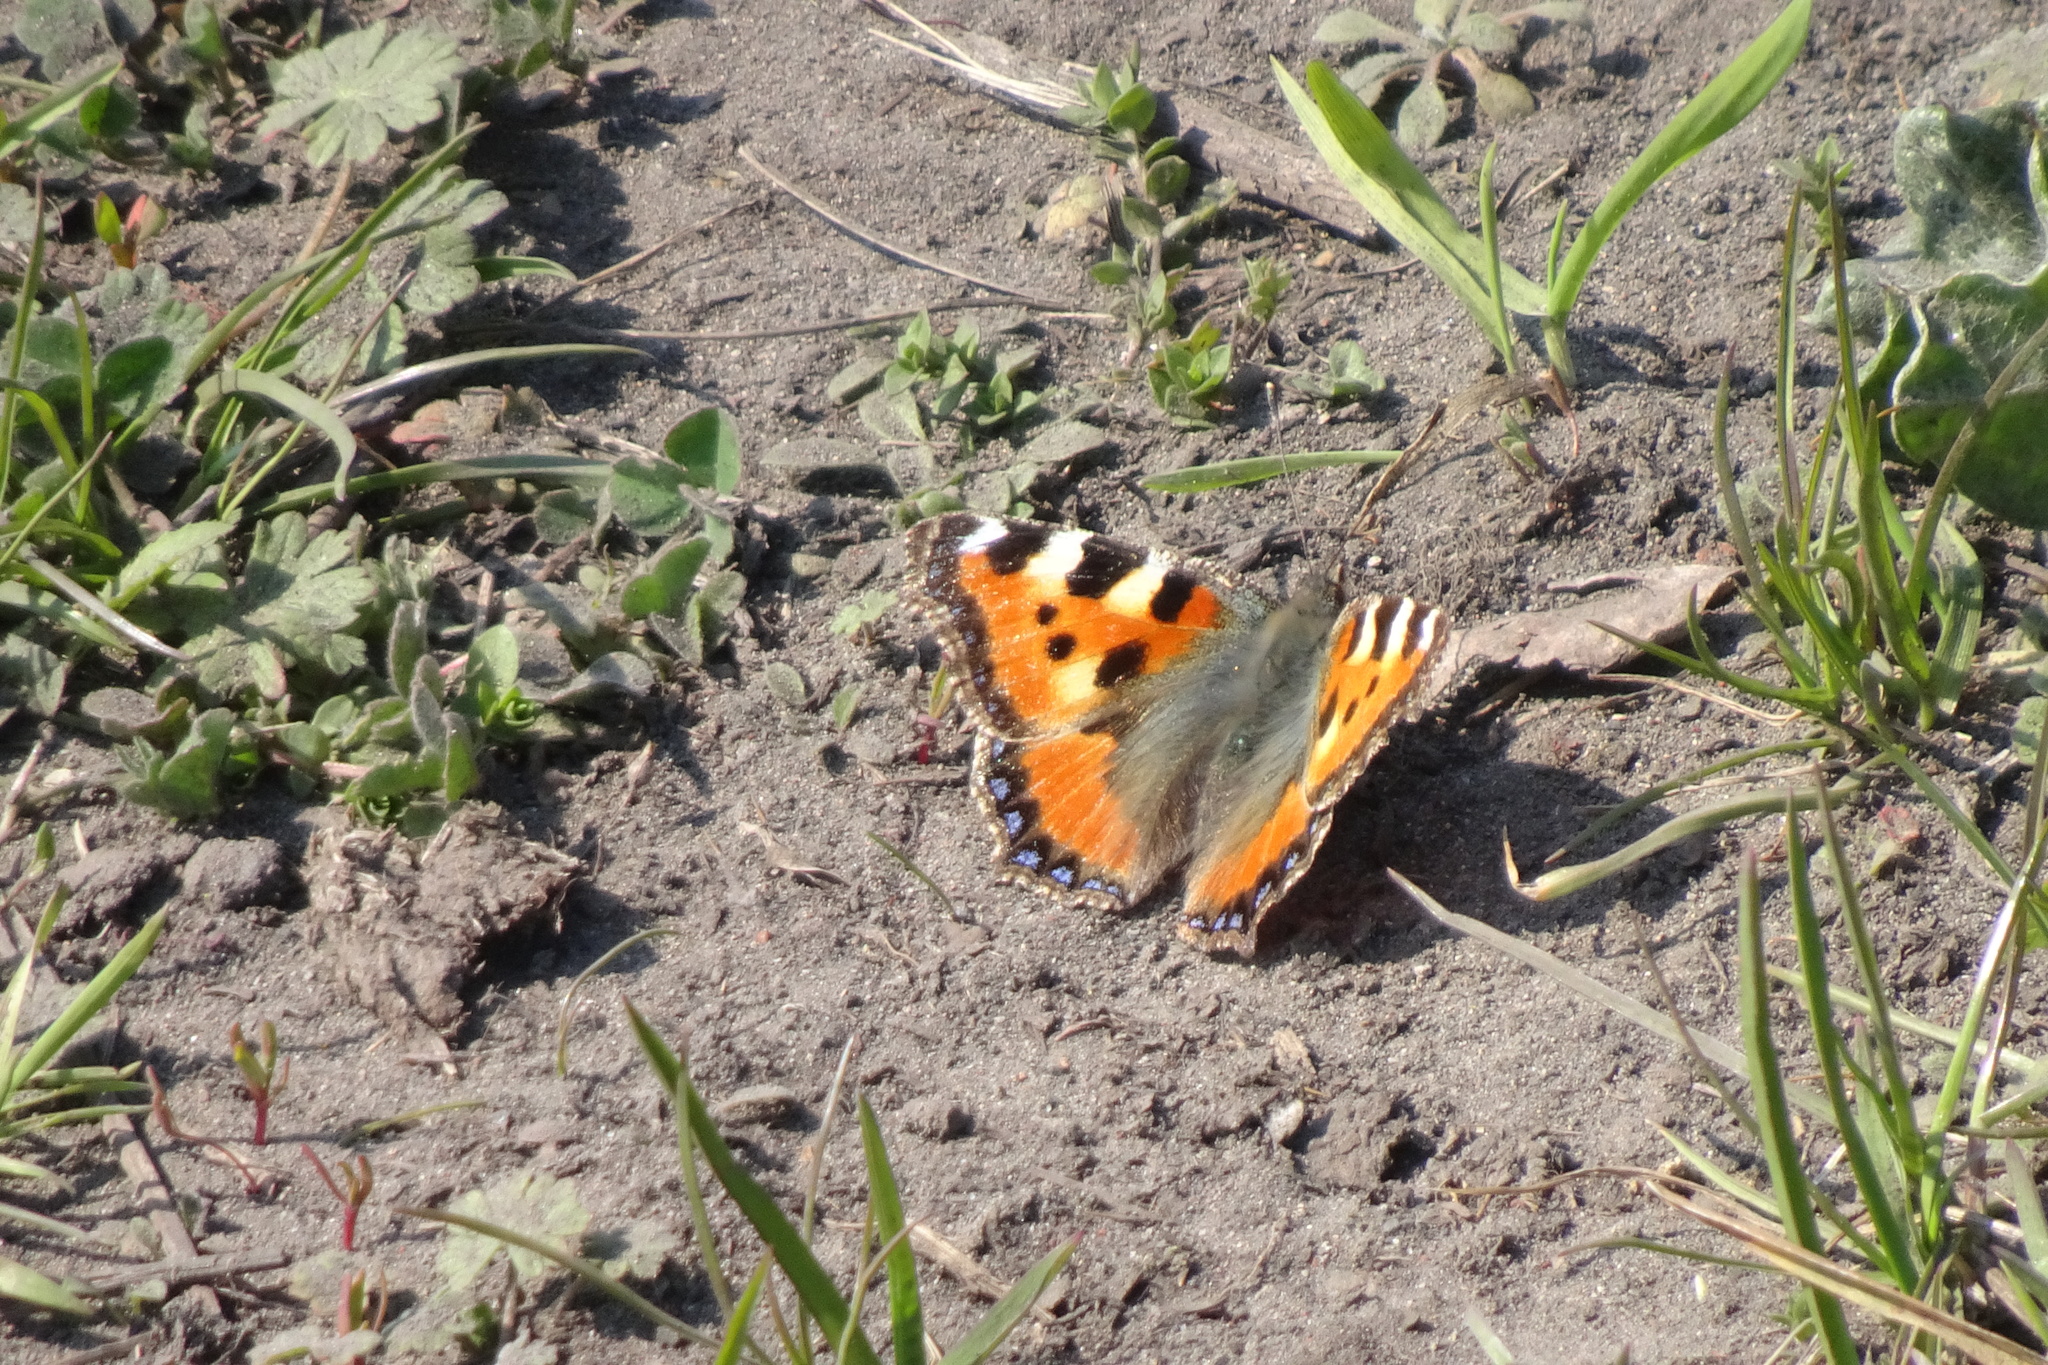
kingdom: Animalia
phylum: Arthropoda
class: Insecta
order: Lepidoptera
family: Nymphalidae
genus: Aglais
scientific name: Aglais urticae
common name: Small tortoiseshell
